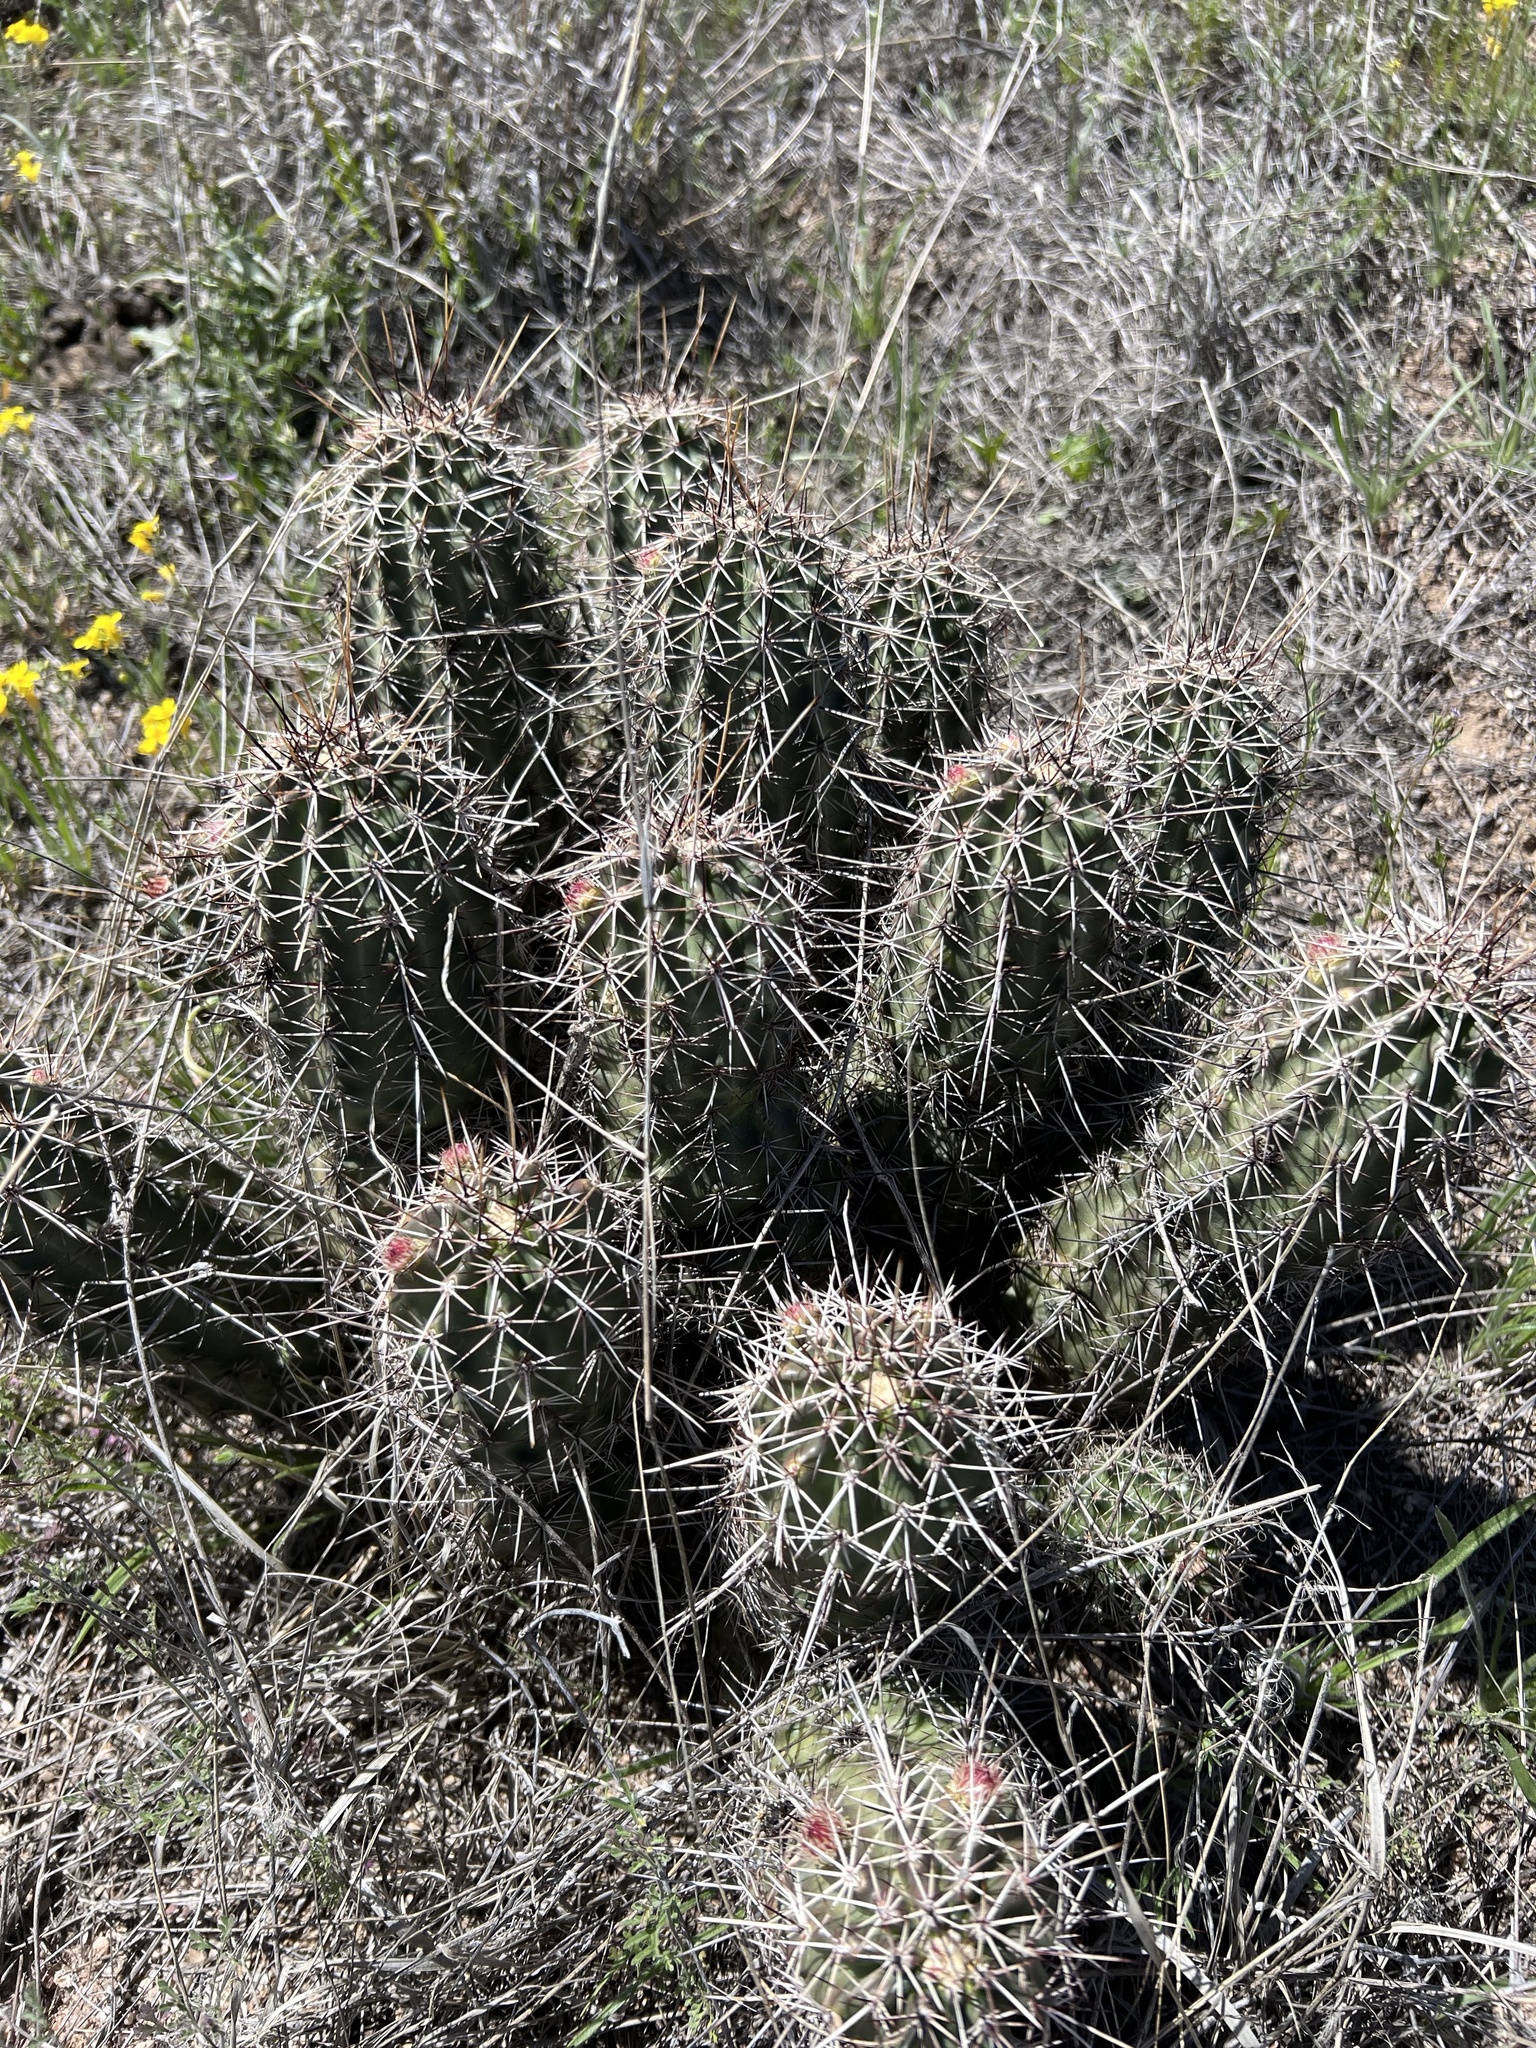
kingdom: Plantae
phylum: Tracheophyta
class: Magnoliopsida
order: Caryophyllales
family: Cactaceae
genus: Echinocereus
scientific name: Echinocereus fasciculatus
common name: Bundle hedgehog
